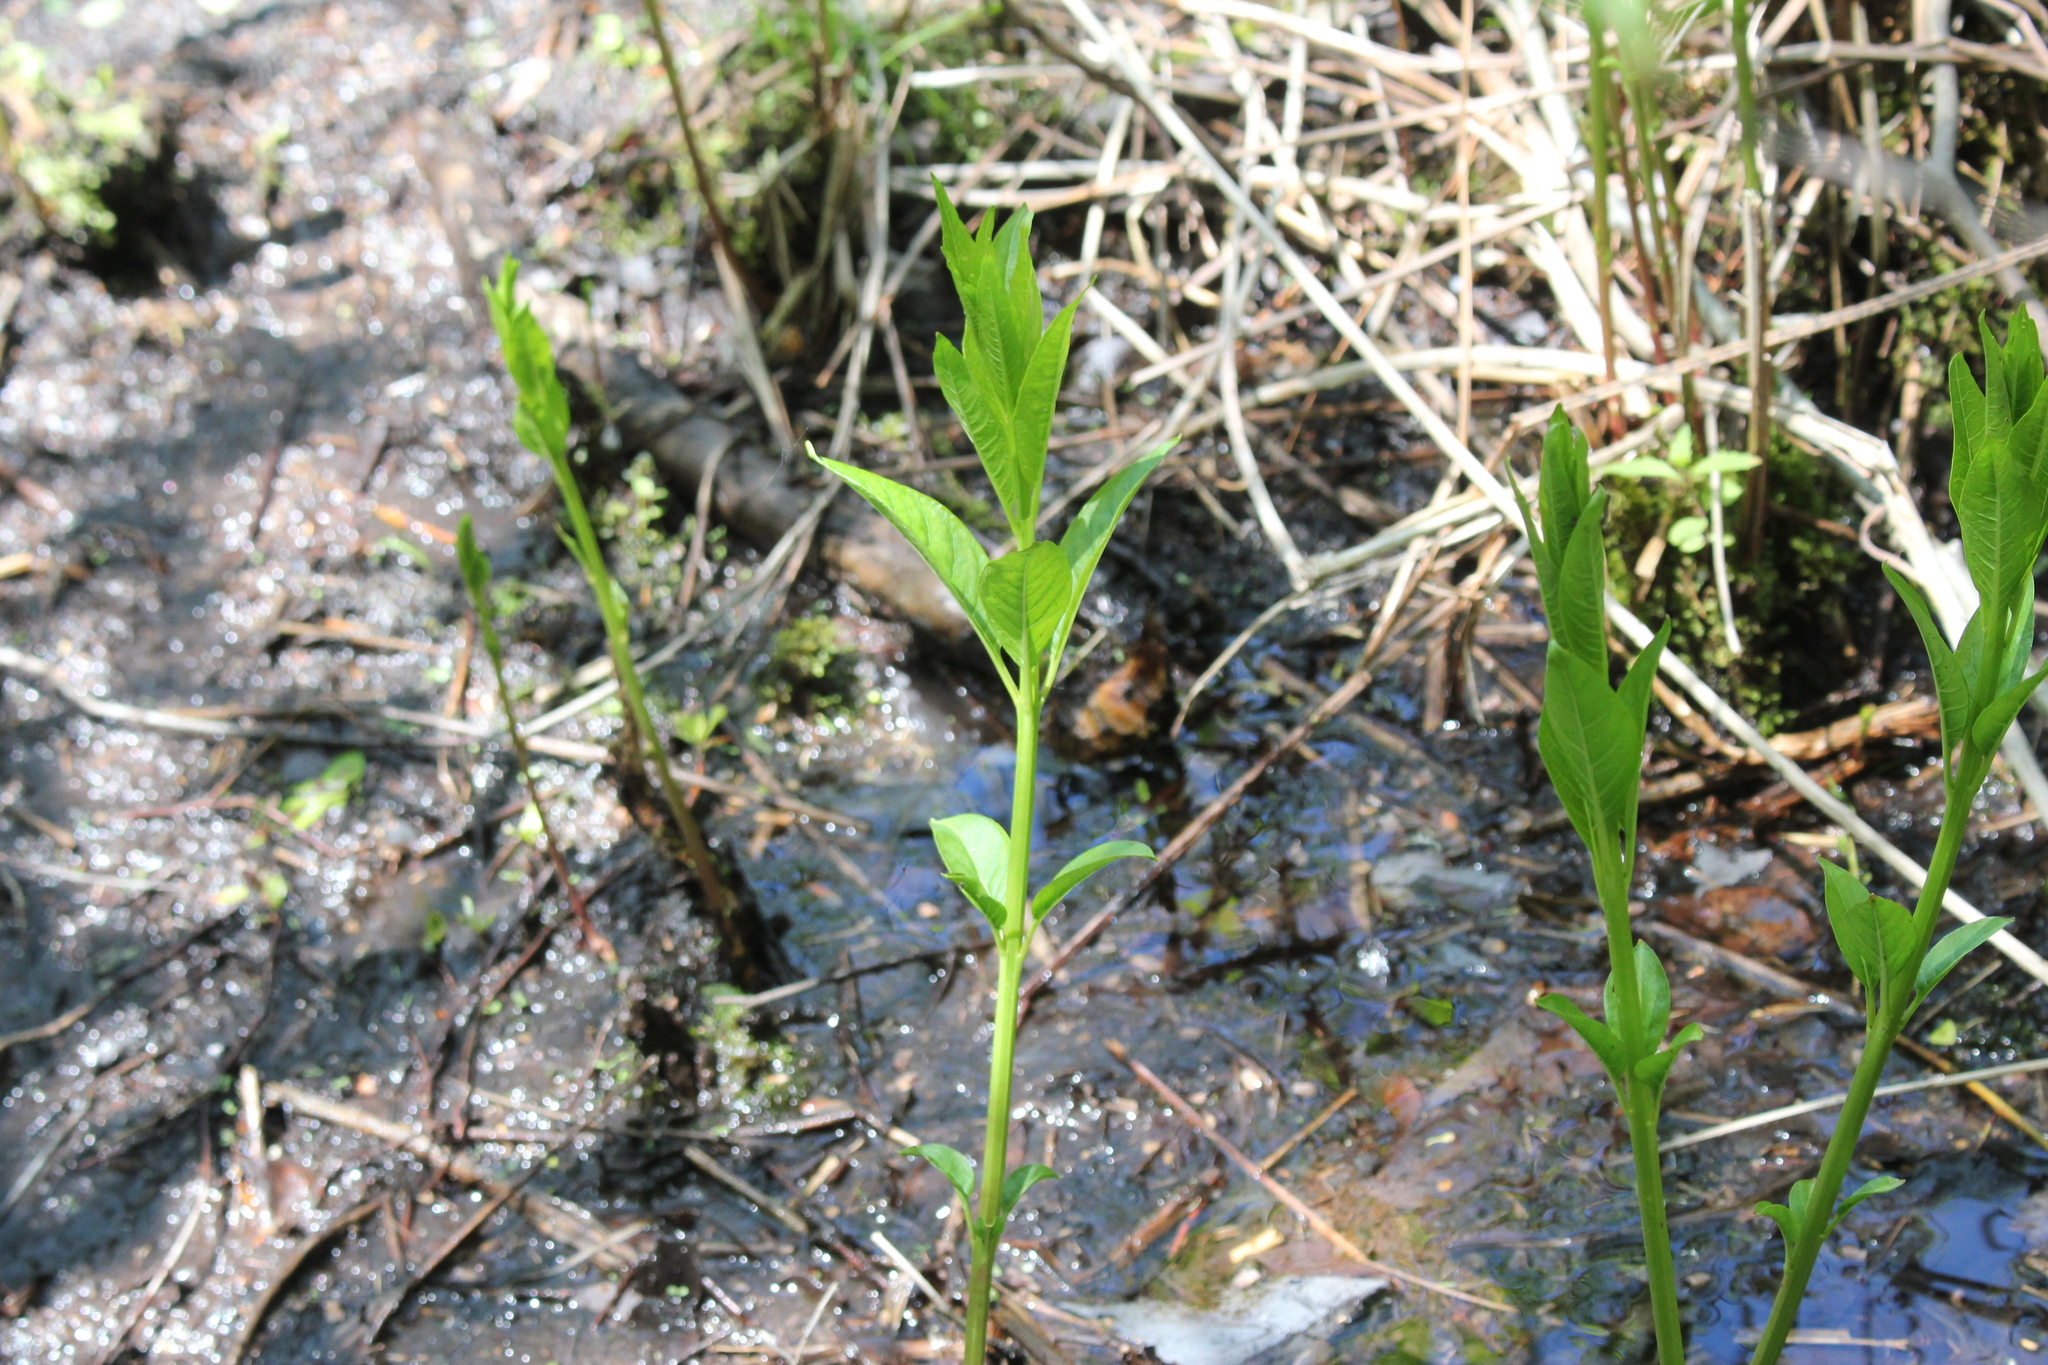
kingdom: Plantae
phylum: Tracheophyta
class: Magnoliopsida
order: Myrtales
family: Lythraceae
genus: Decodon
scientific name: Decodon verticillatus
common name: Hairy swamp loosestrife
